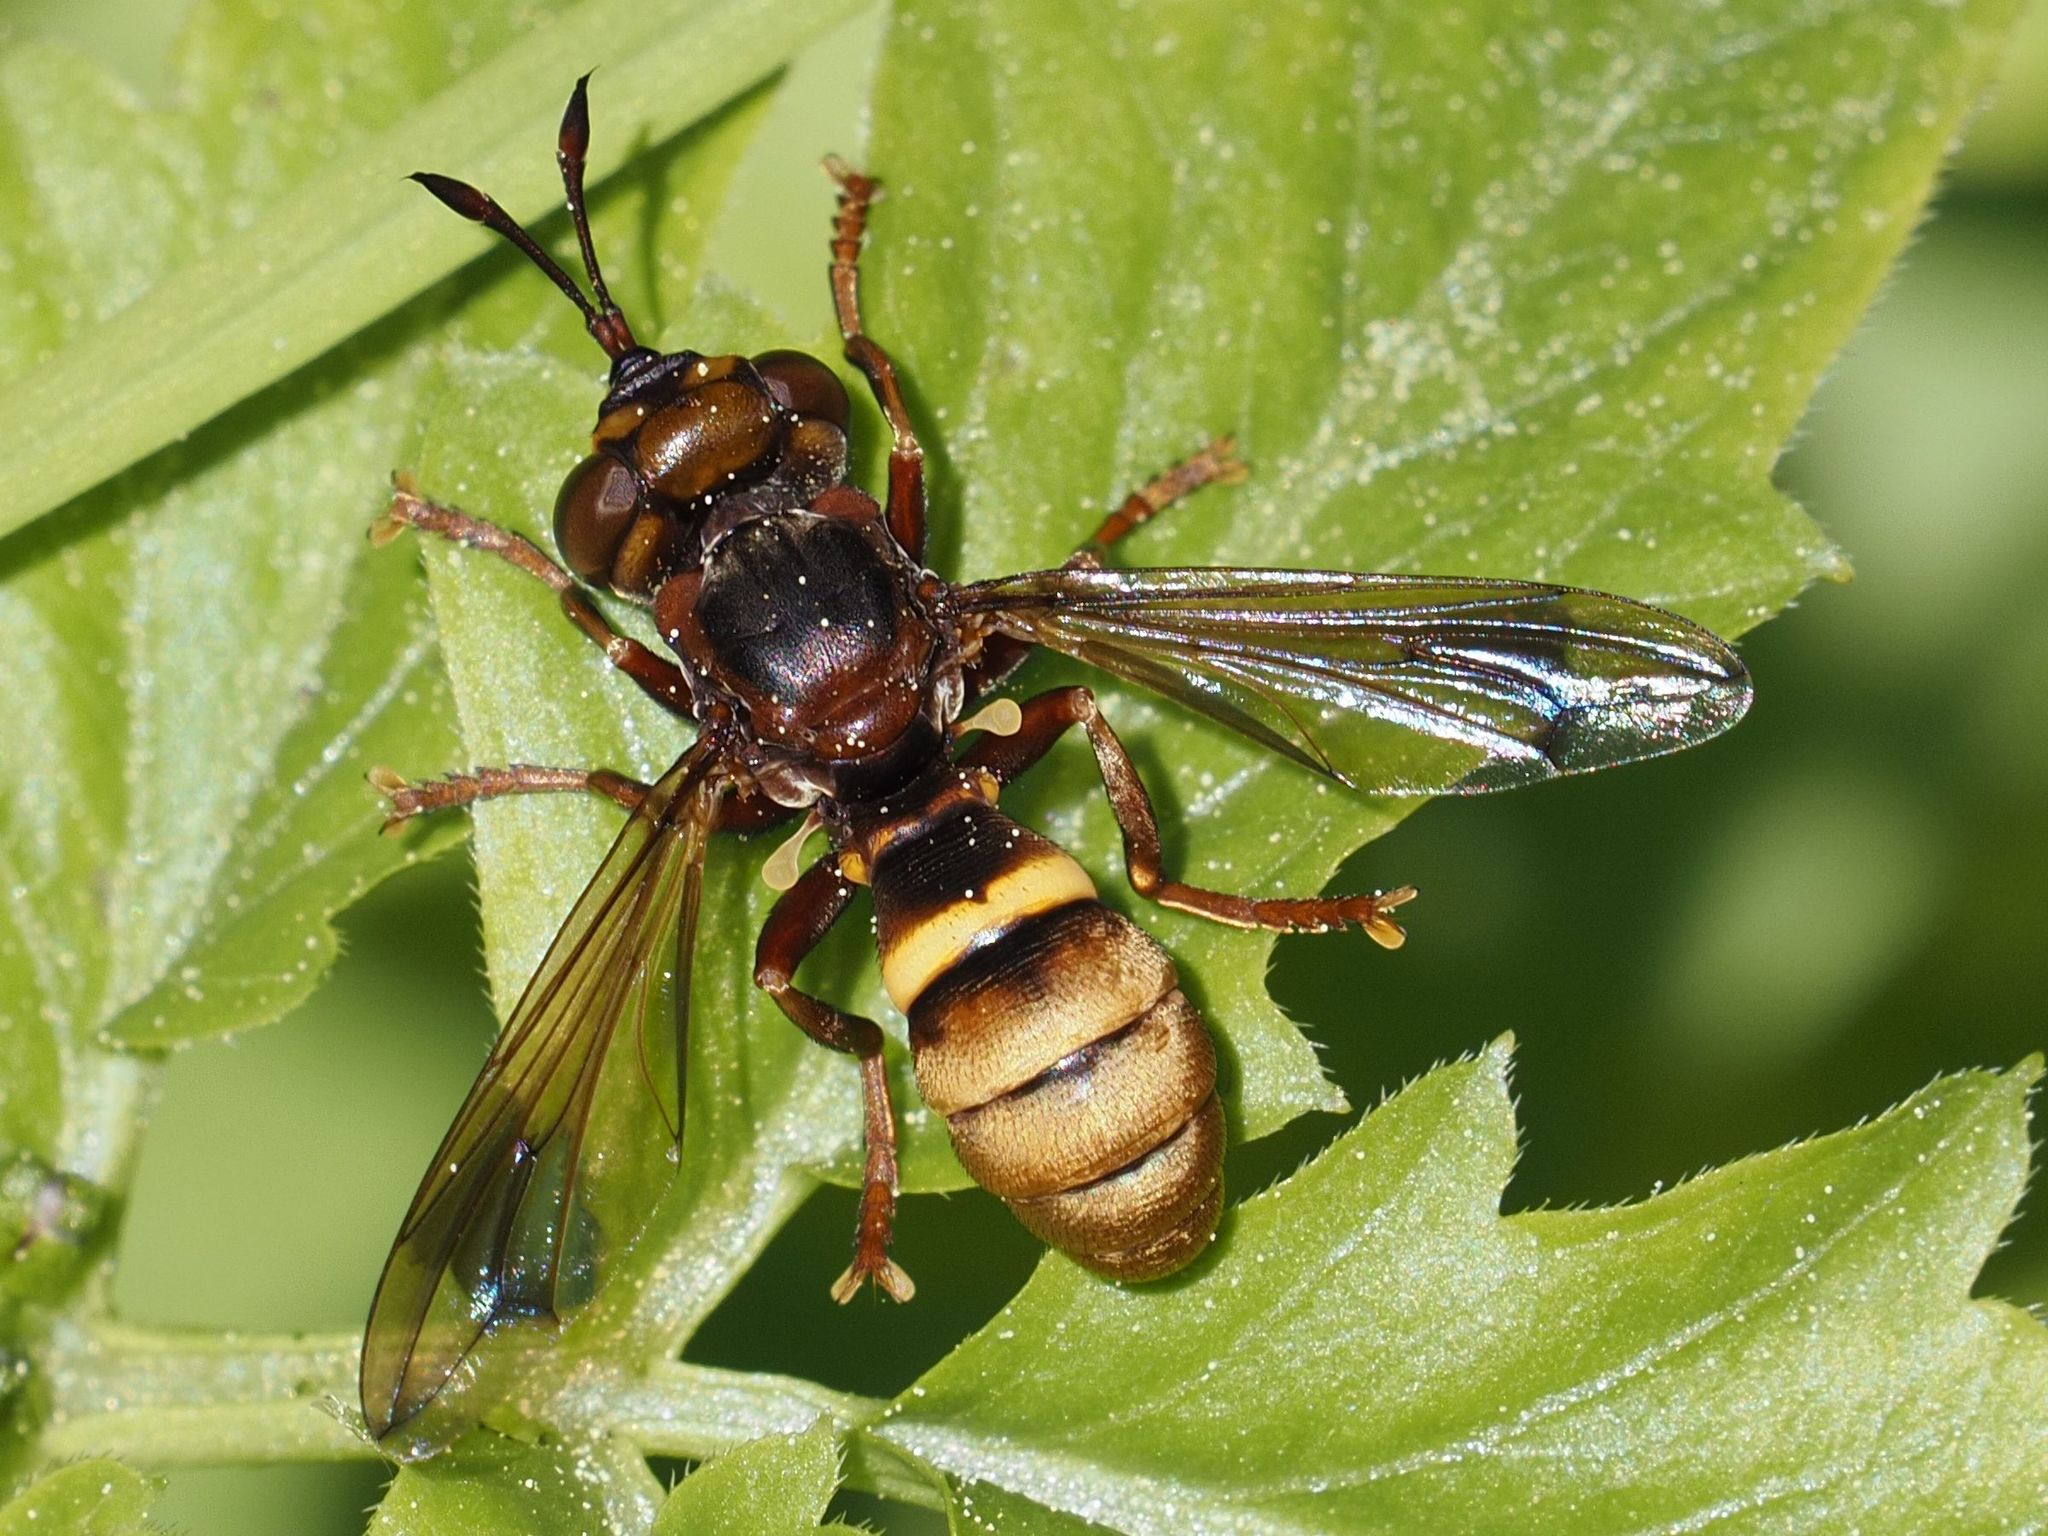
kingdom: Animalia
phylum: Arthropoda
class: Insecta
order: Diptera
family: Conopidae
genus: Conops
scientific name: Conops vesicularis
